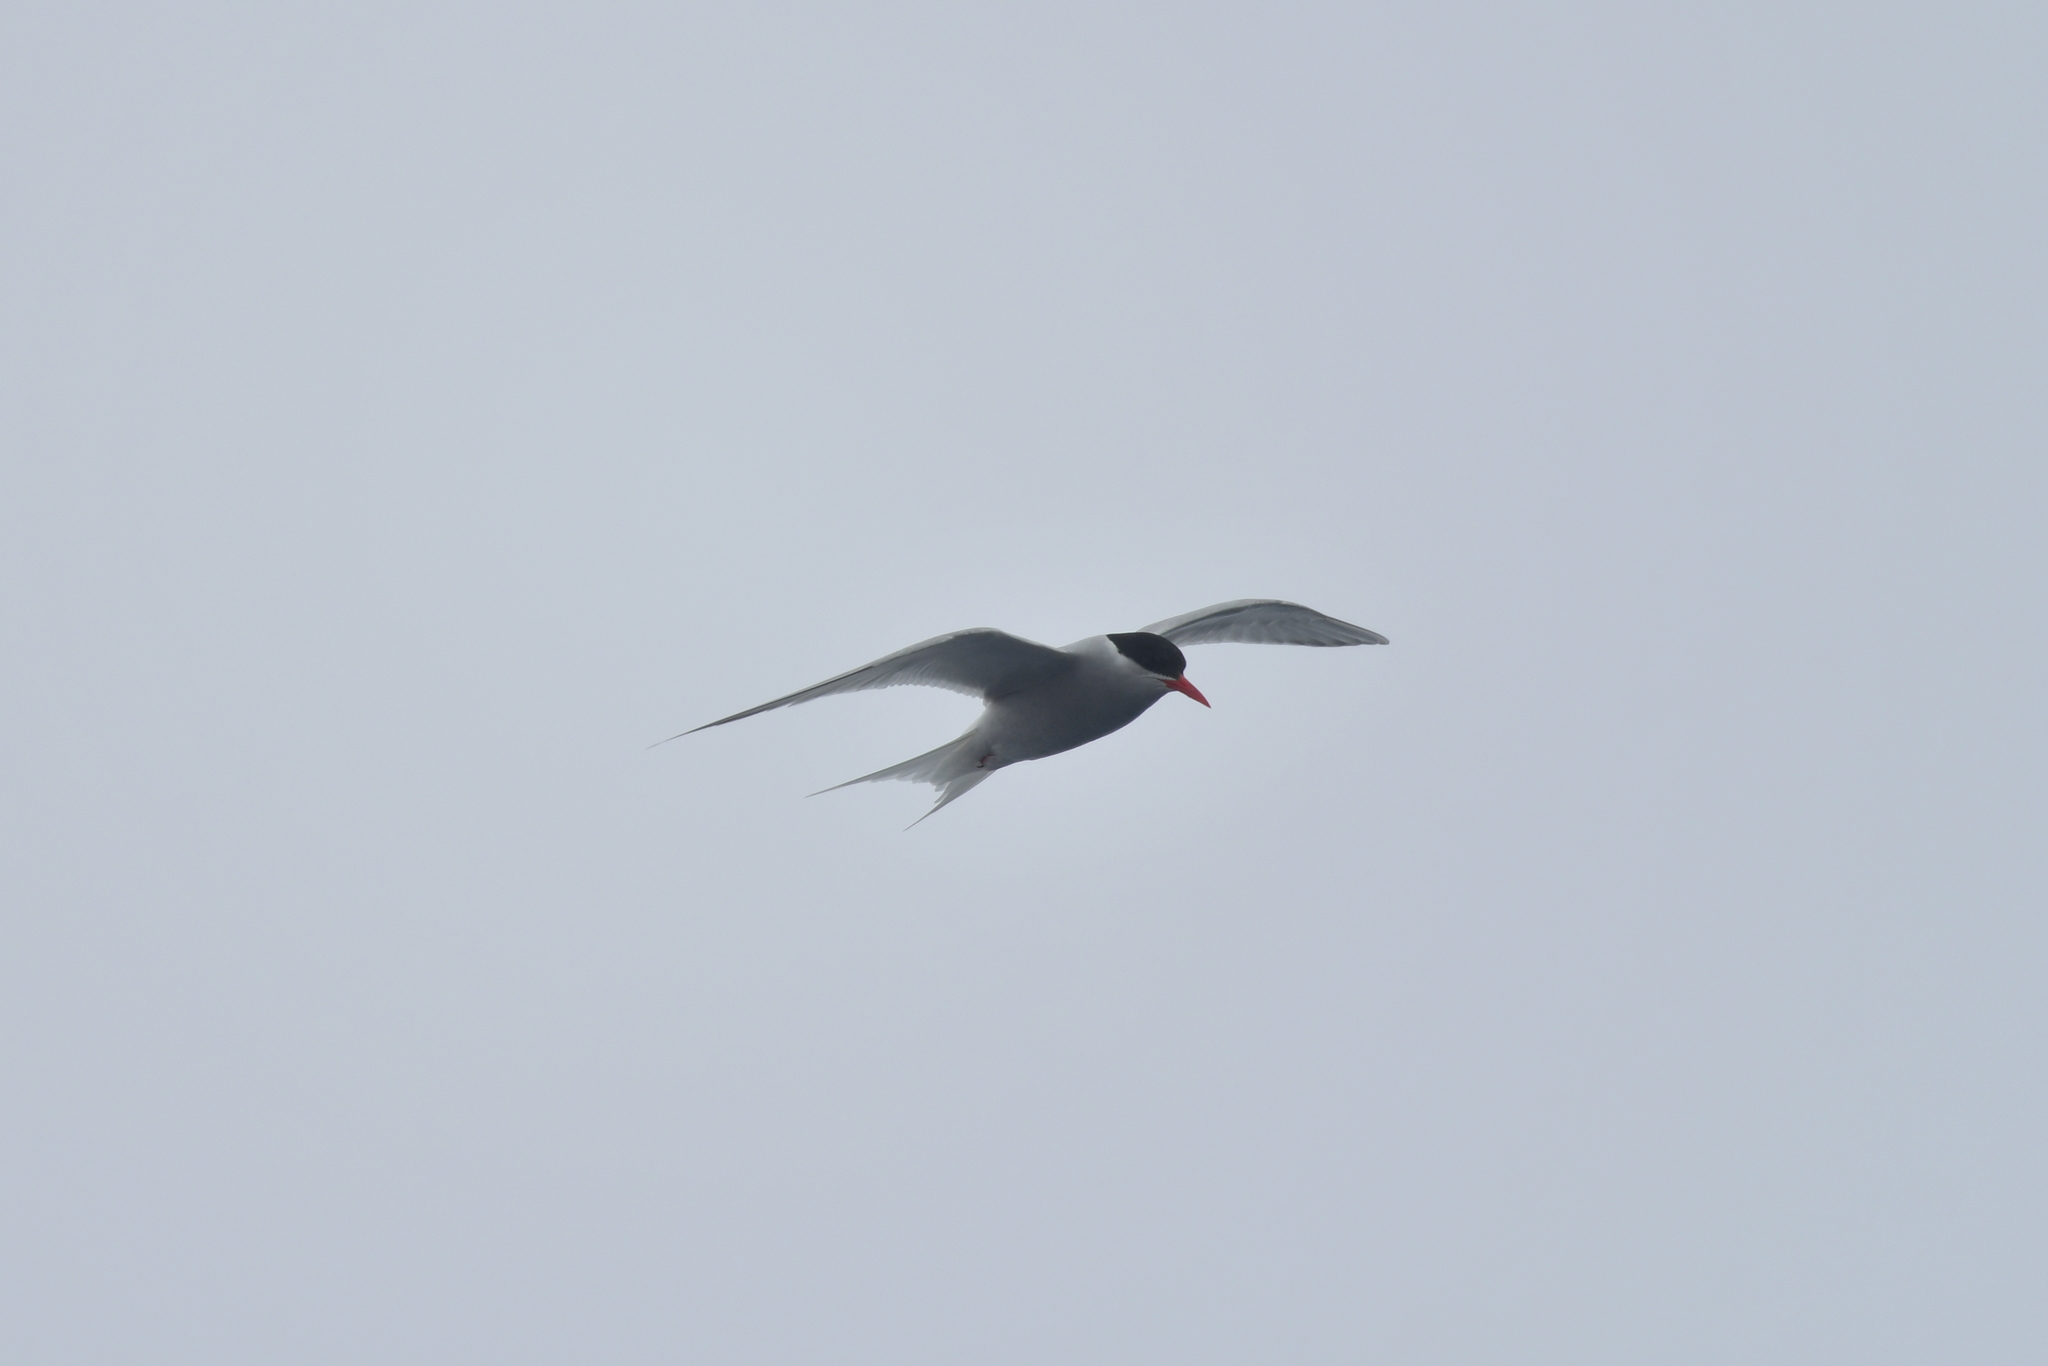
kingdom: Animalia
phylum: Chordata
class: Aves
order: Charadriiformes
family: Laridae
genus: Sterna
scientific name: Sterna vittata
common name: Antarctic tern
